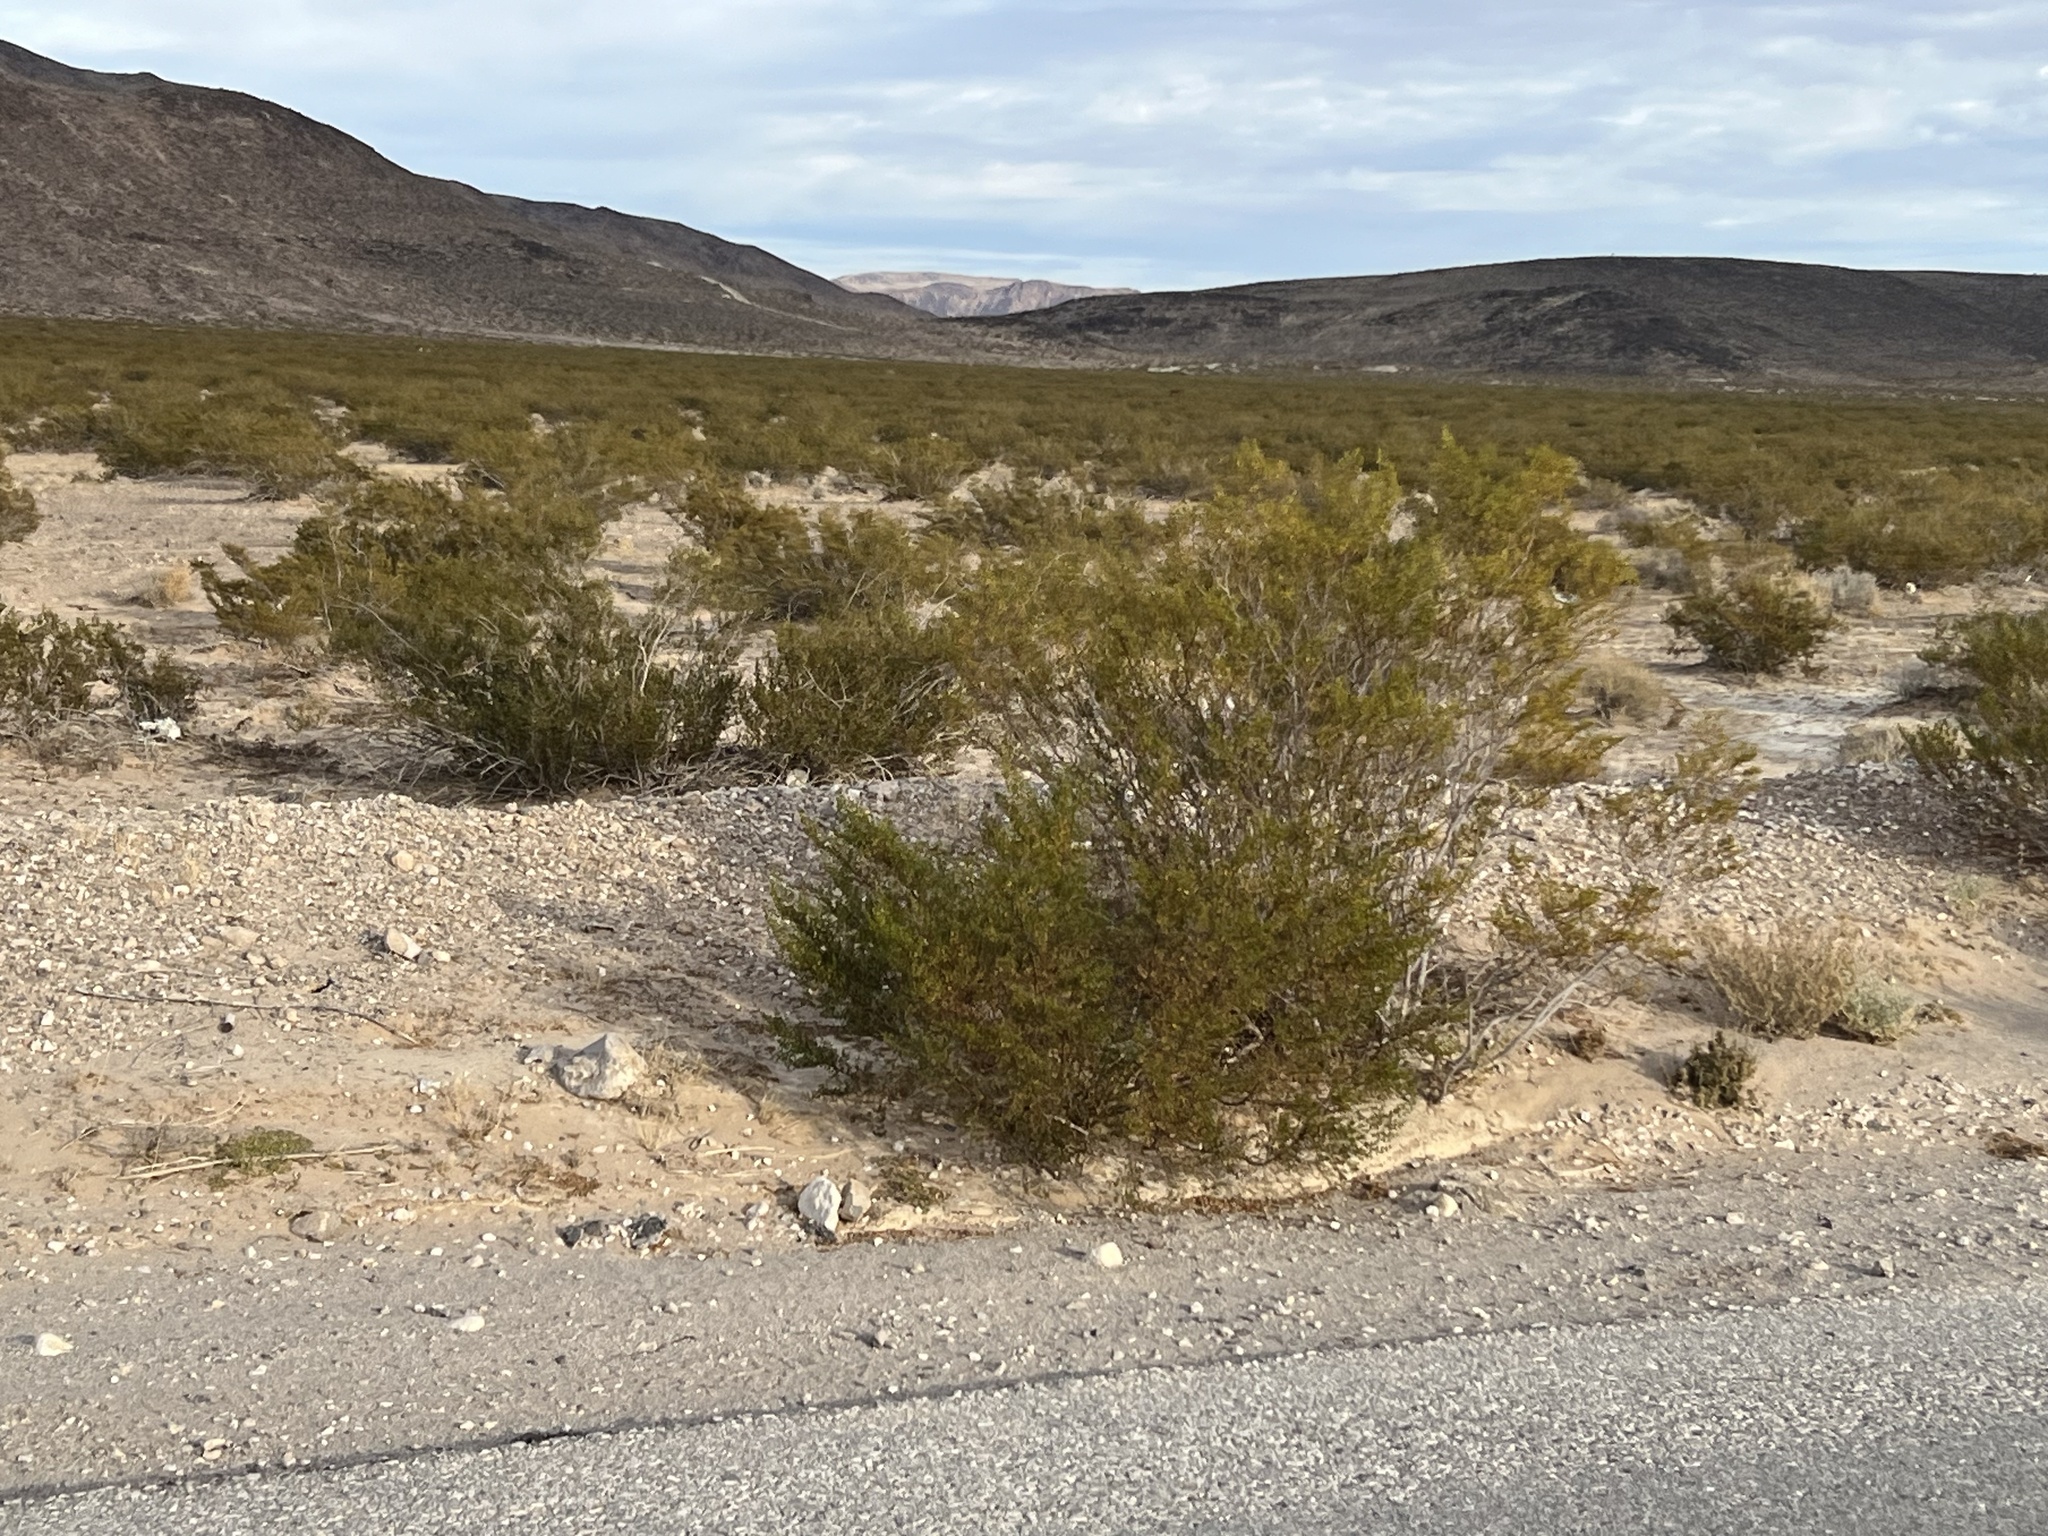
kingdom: Plantae
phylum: Tracheophyta
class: Magnoliopsida
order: Zygophyllales
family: Zygophyllaceae
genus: Larrea
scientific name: Larrea tridentata
